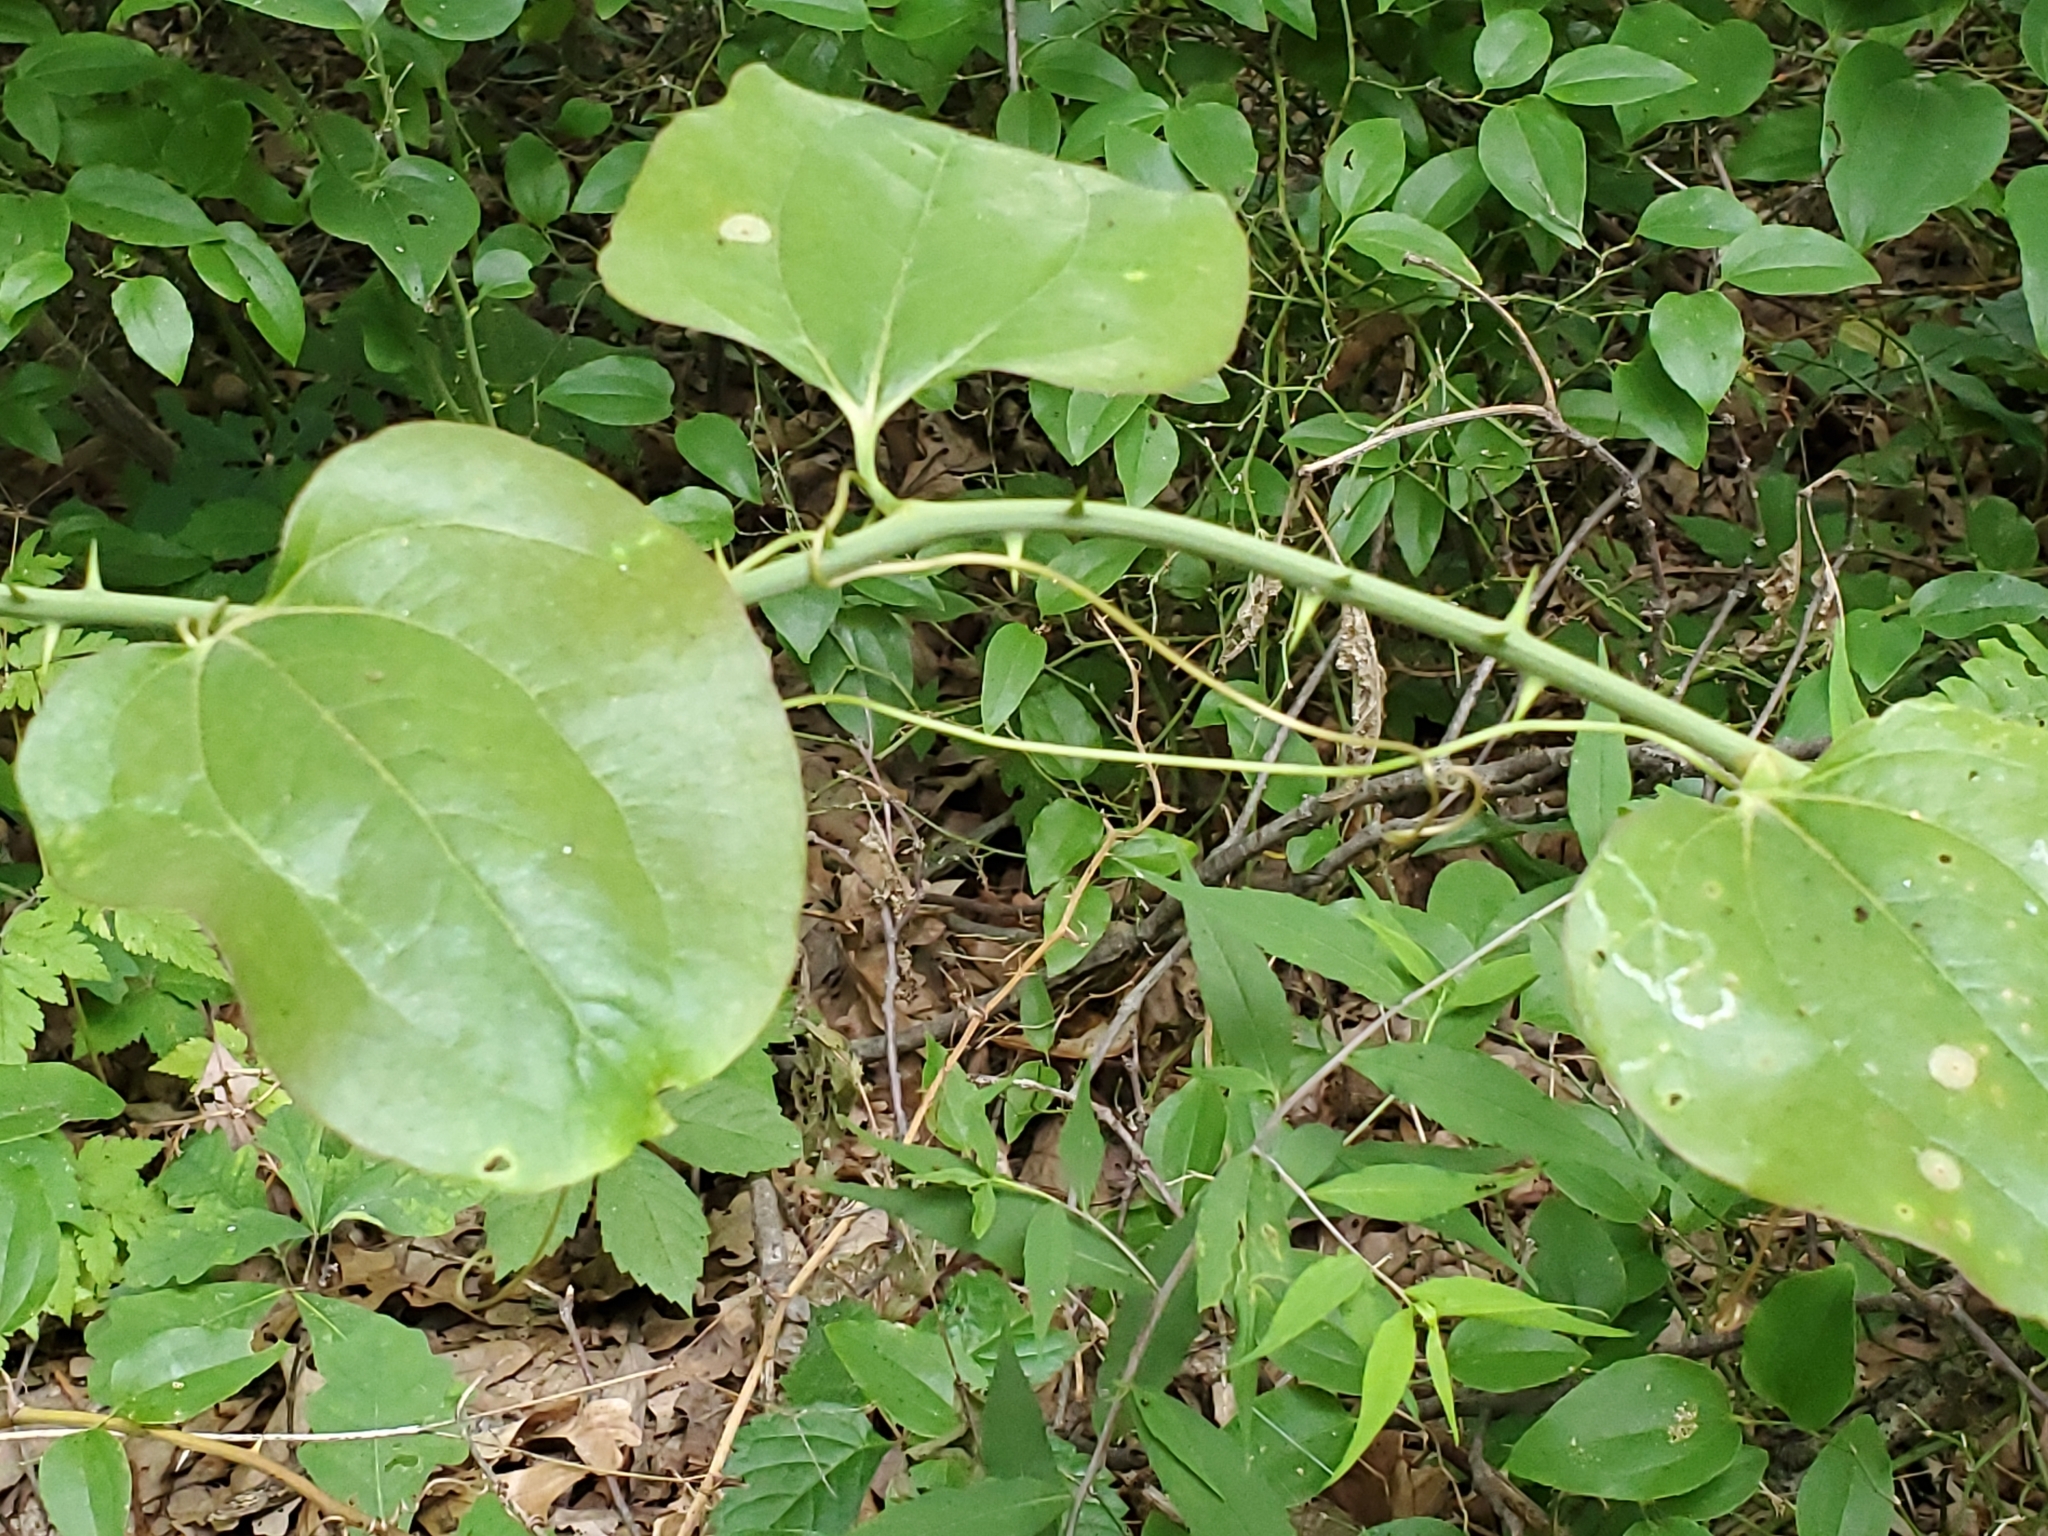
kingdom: Plantae
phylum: Tracheophyta
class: Liliopsida
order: Liliales
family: Smilacaceae
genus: Smilax
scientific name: Smilax rotundifolia
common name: Bullbriar
